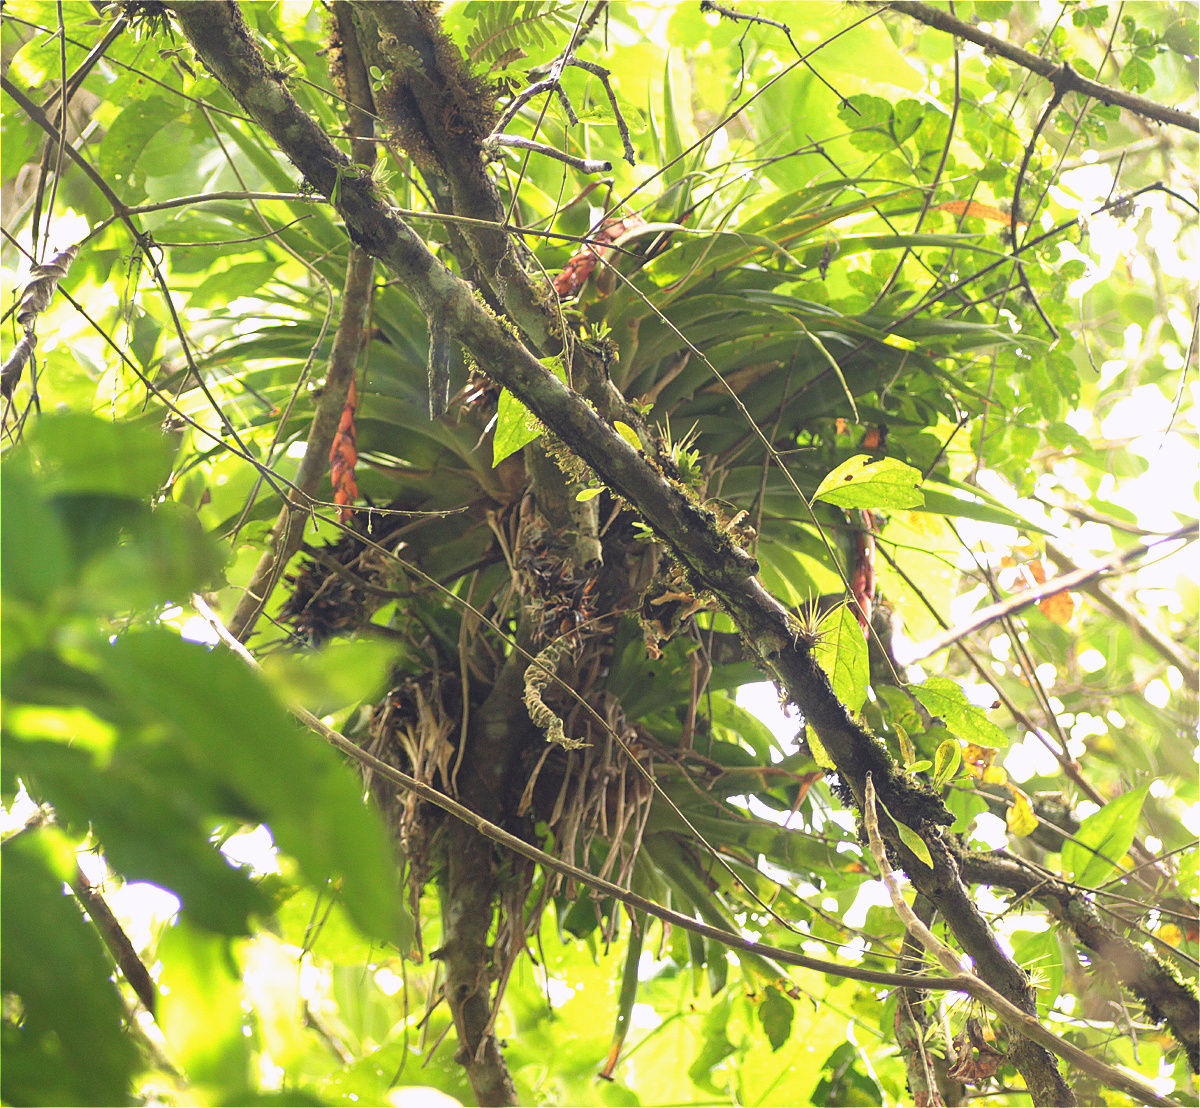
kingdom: Plantae
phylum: Tracheophyta
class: Liliopsida
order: Poales
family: Bromeliaceae
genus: Vriesea
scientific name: Vriesea tequendamae
